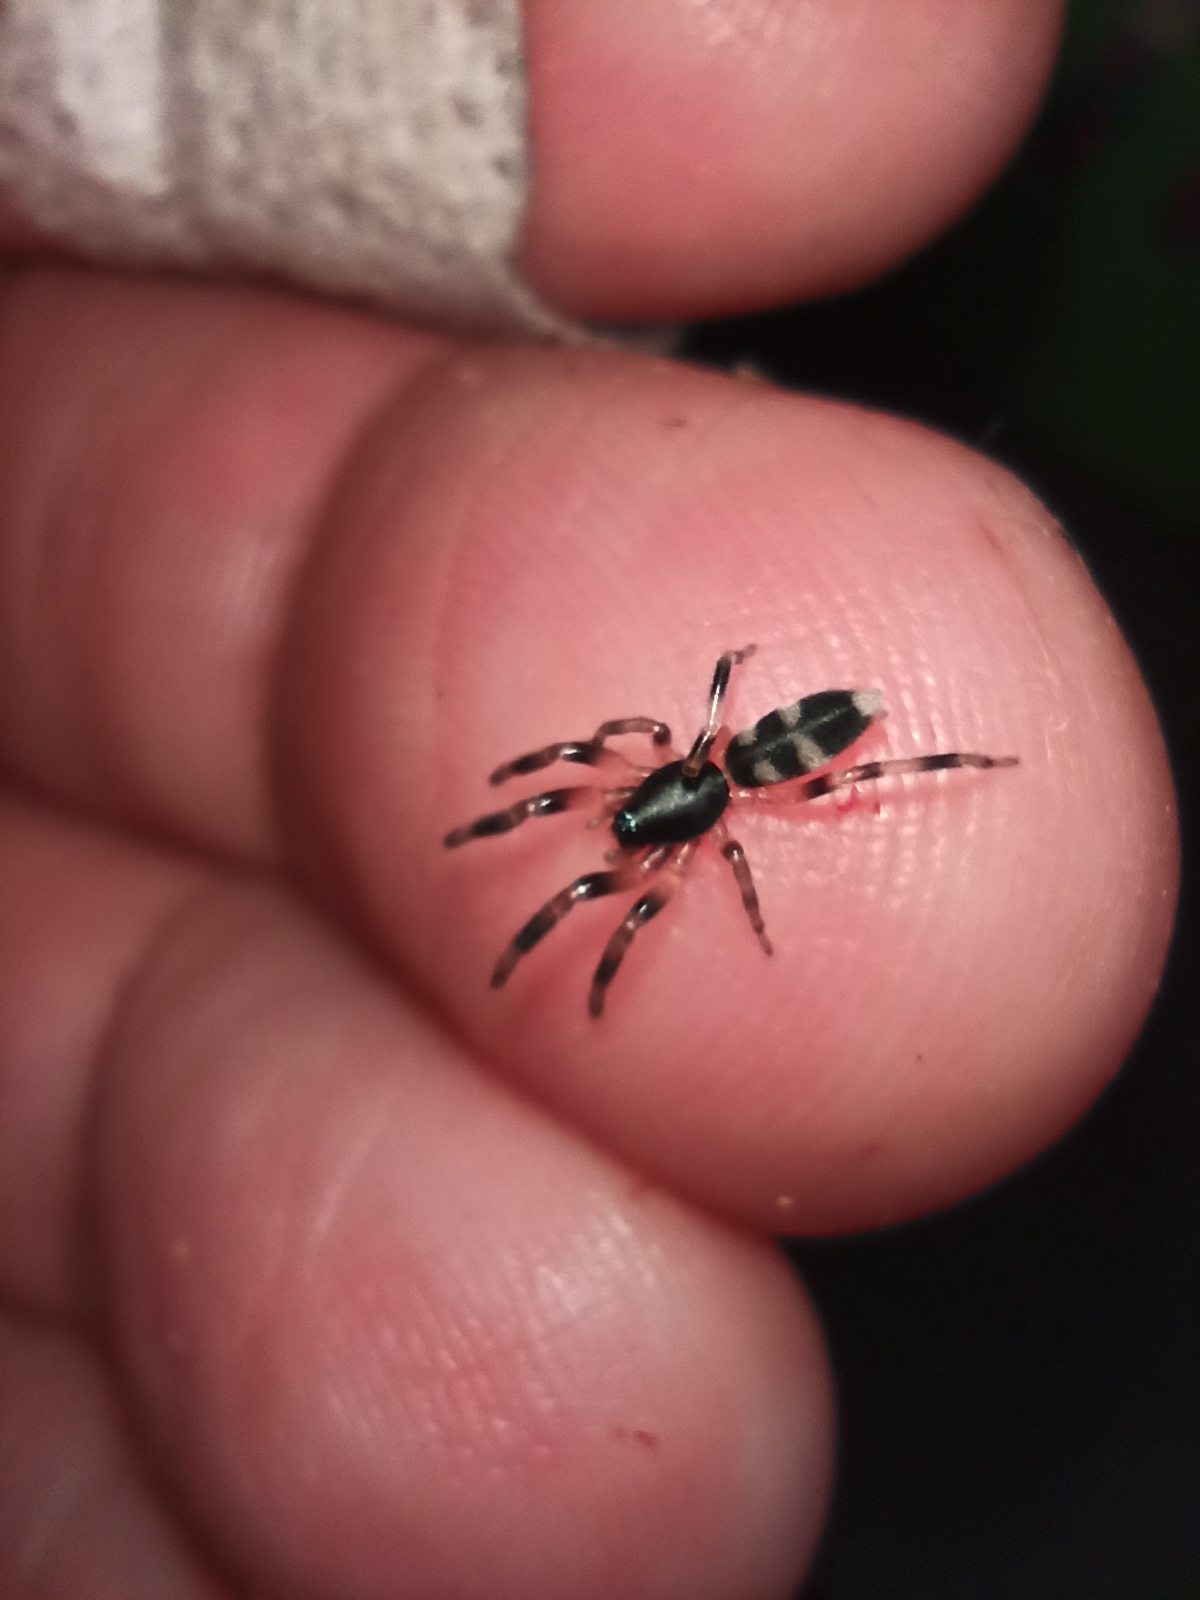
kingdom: Animalia
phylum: Arthropoda
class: Arachnida
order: Araneae
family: Lamponidae
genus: Lampona
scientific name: Lampona murina
